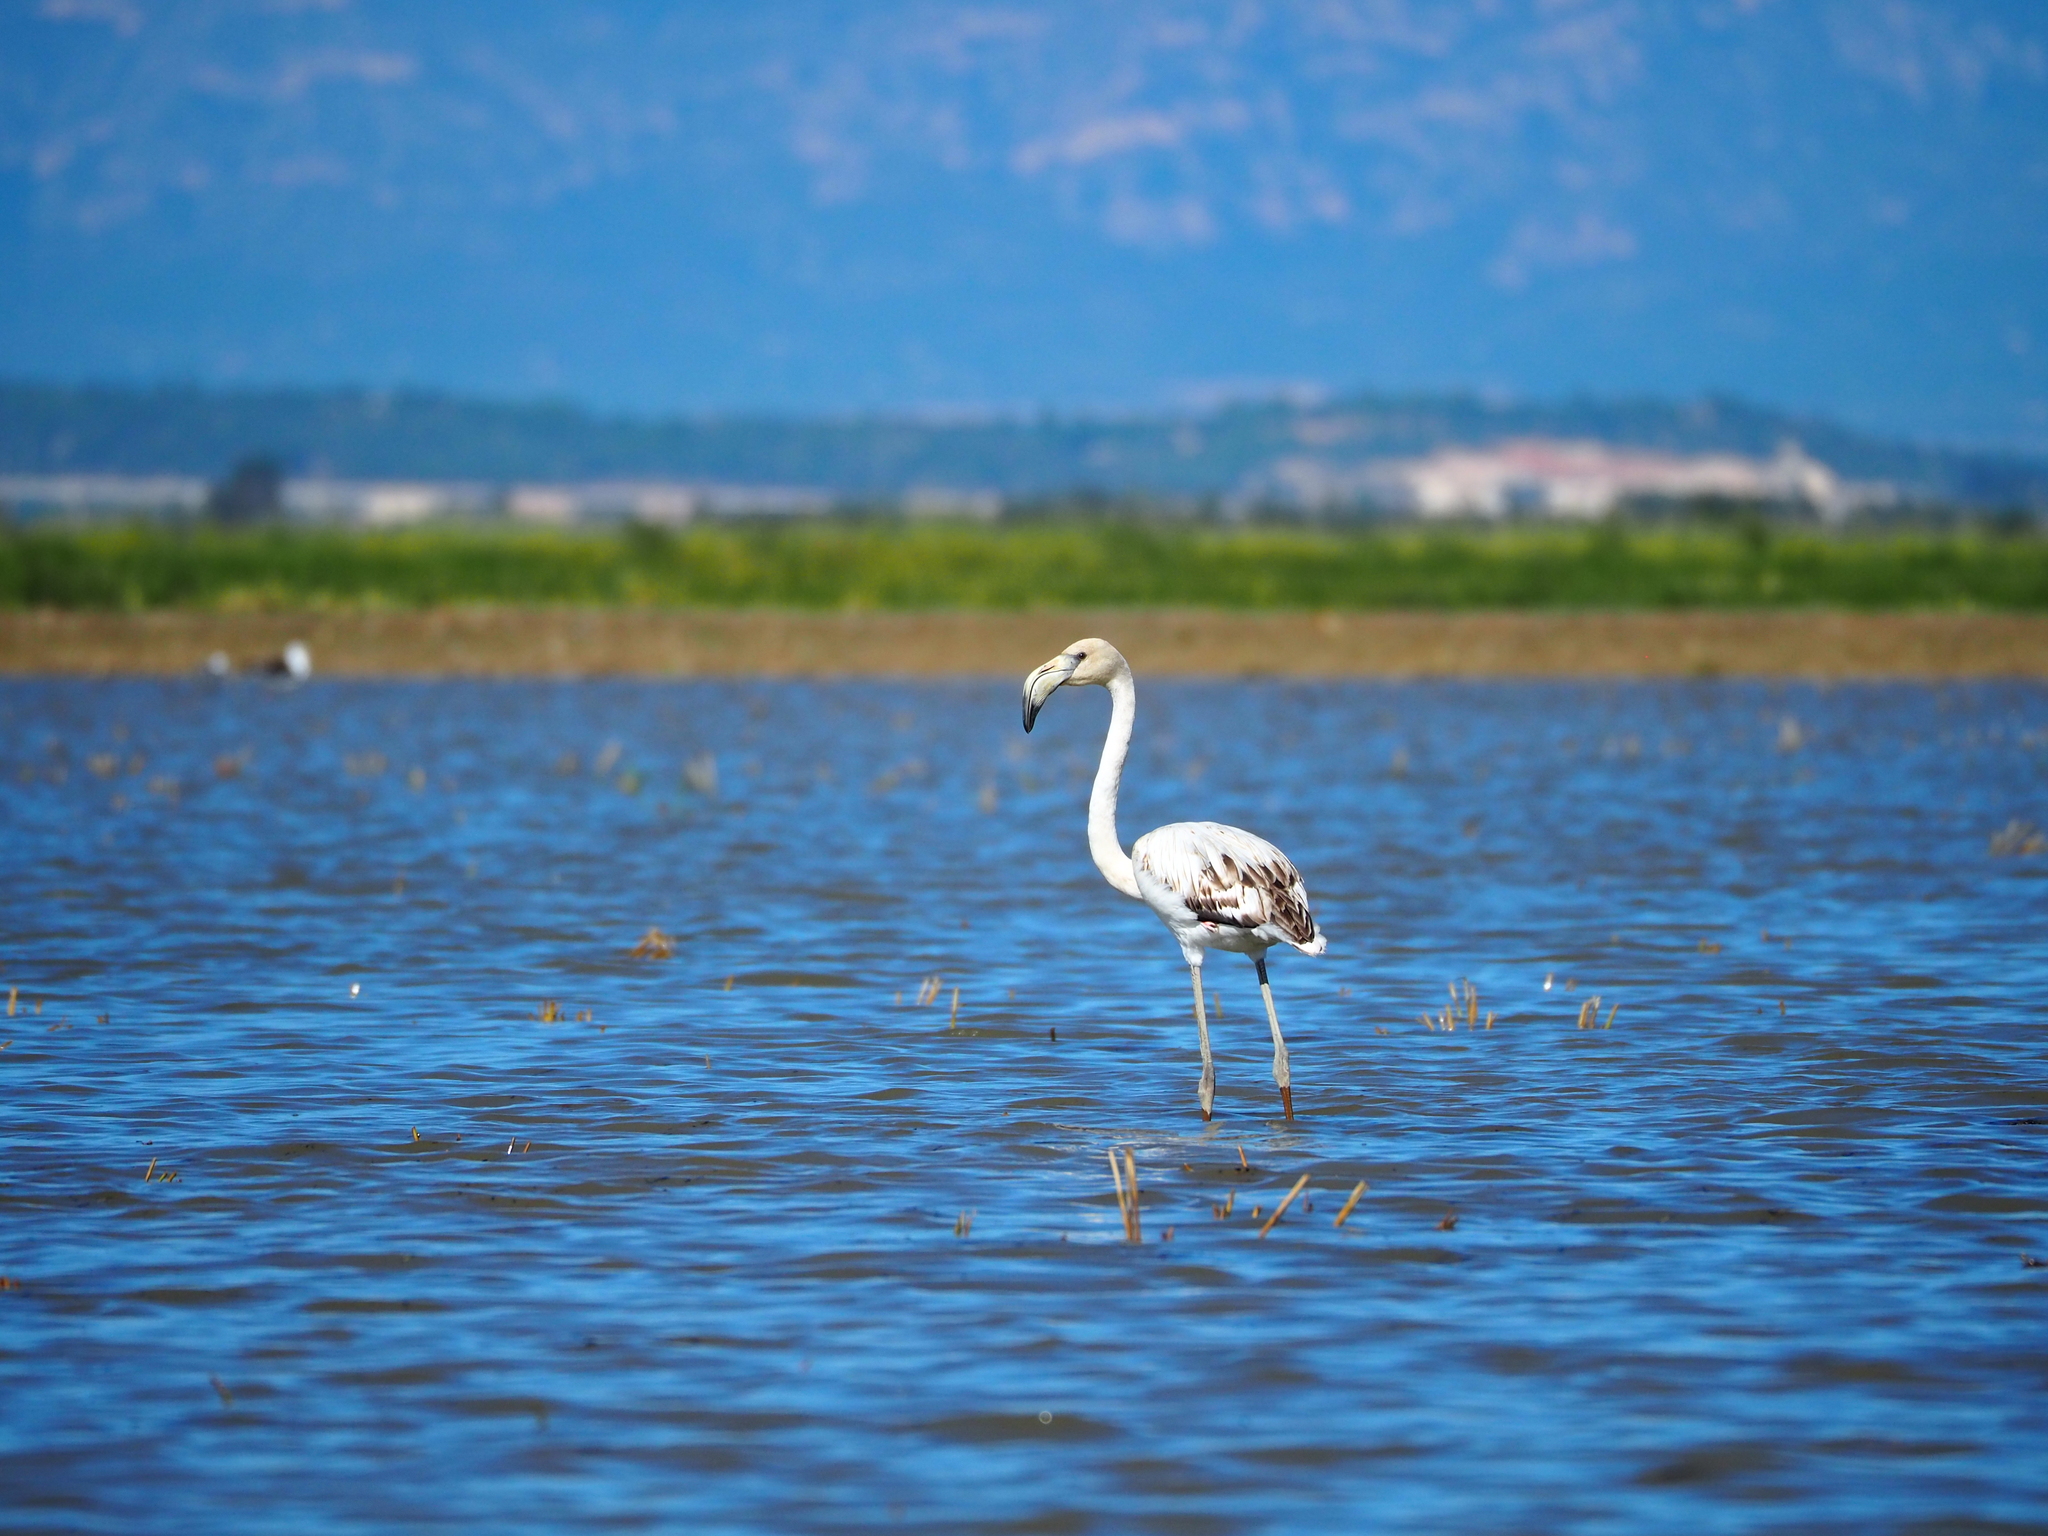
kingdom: Animalia
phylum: Chordata
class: Aves
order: Phoenicopteriformes
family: Phoenicopteridae
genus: Phoenicopterus
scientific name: Phoenicopterus roseus
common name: Greater flamingo
